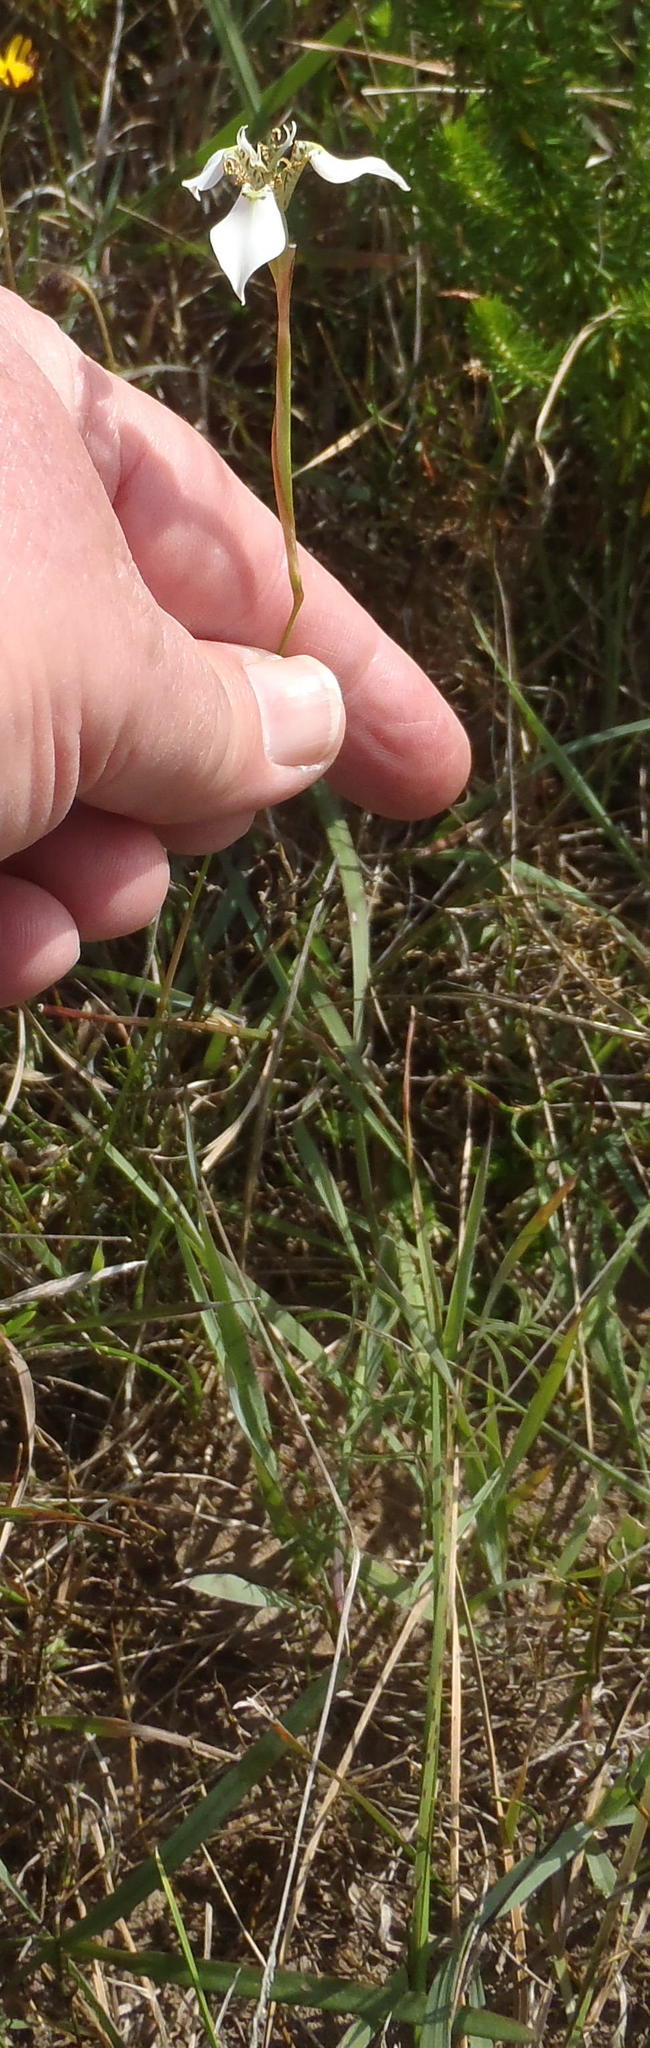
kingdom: Plantae
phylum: Tracheophyta
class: Liliopsida
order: Asparagales
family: Iridaceae
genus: Moraea
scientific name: Moraea tricuspidata
